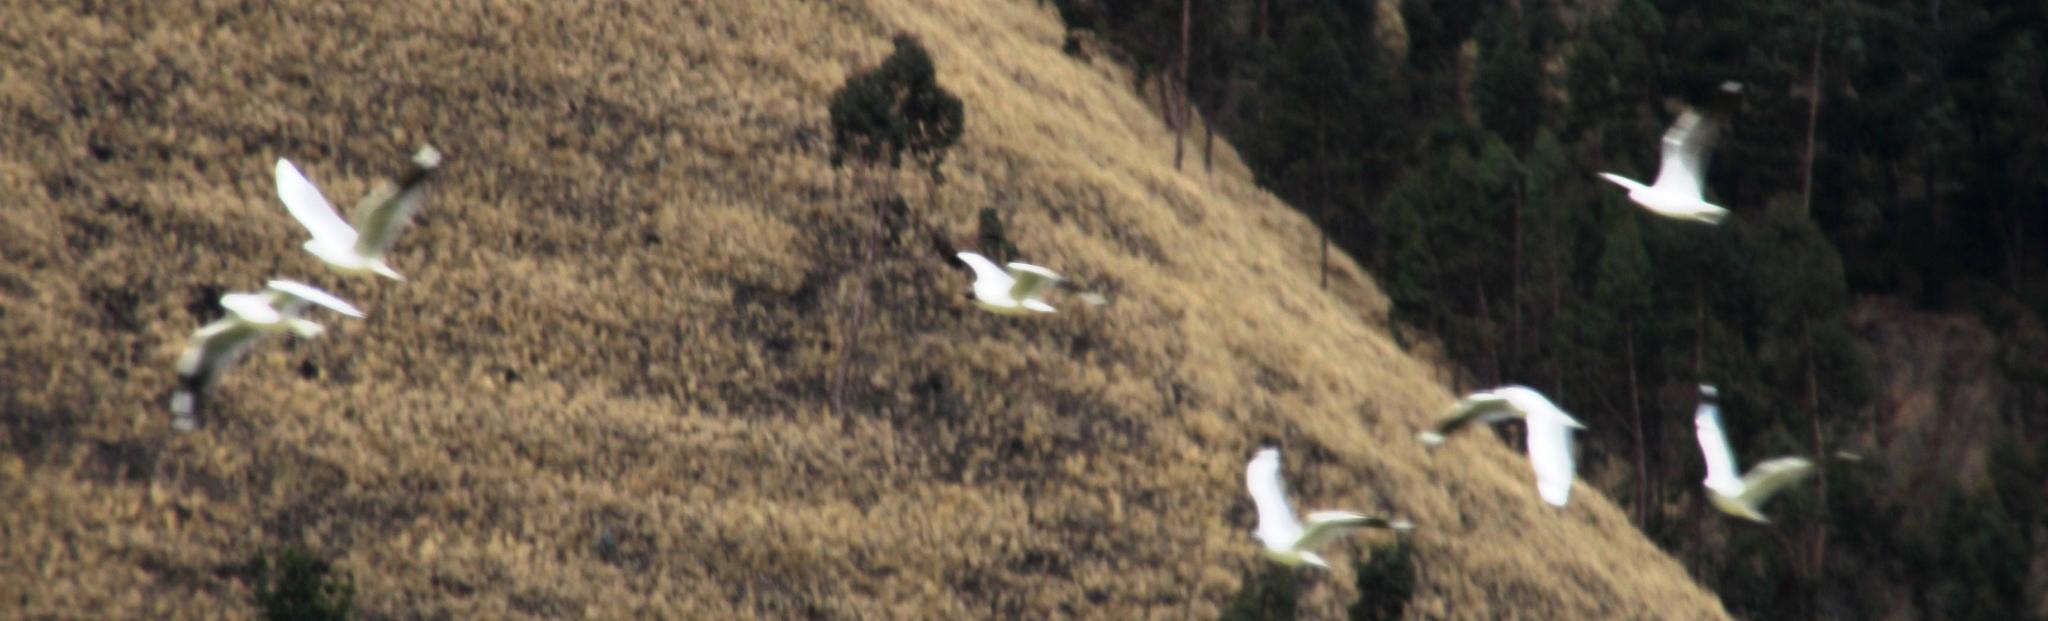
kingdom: Animalia
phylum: Chordata
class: Aves
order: Charadriiformes
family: Laridae
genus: Chroicocephalus
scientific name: Chroicocephalus serranus
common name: Andean gull
